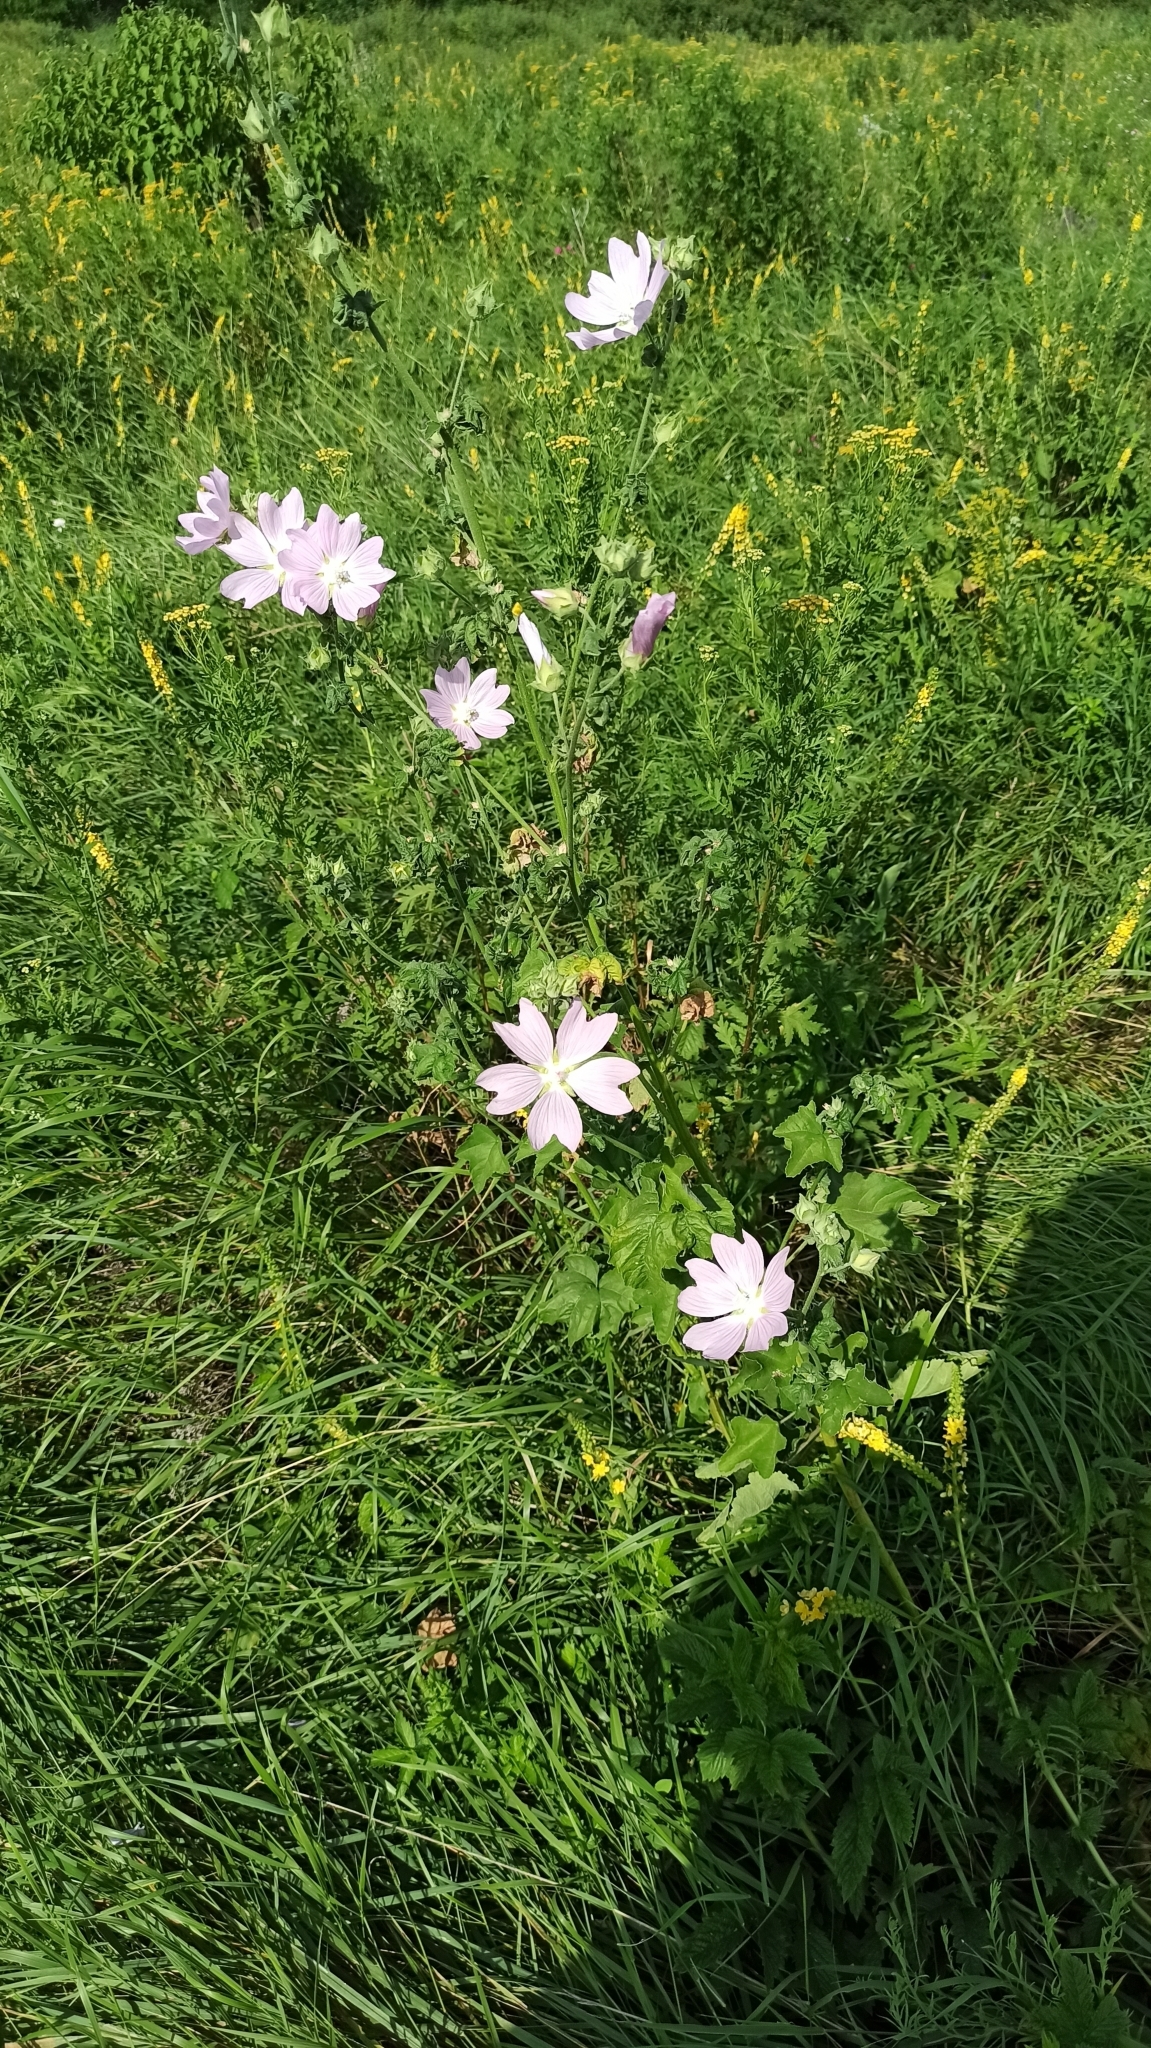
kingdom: Plantae
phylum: Tracheophyta
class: Magnoliopsida
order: Malvales
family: Malvaceae
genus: Malva
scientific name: Malva thuringiaca
